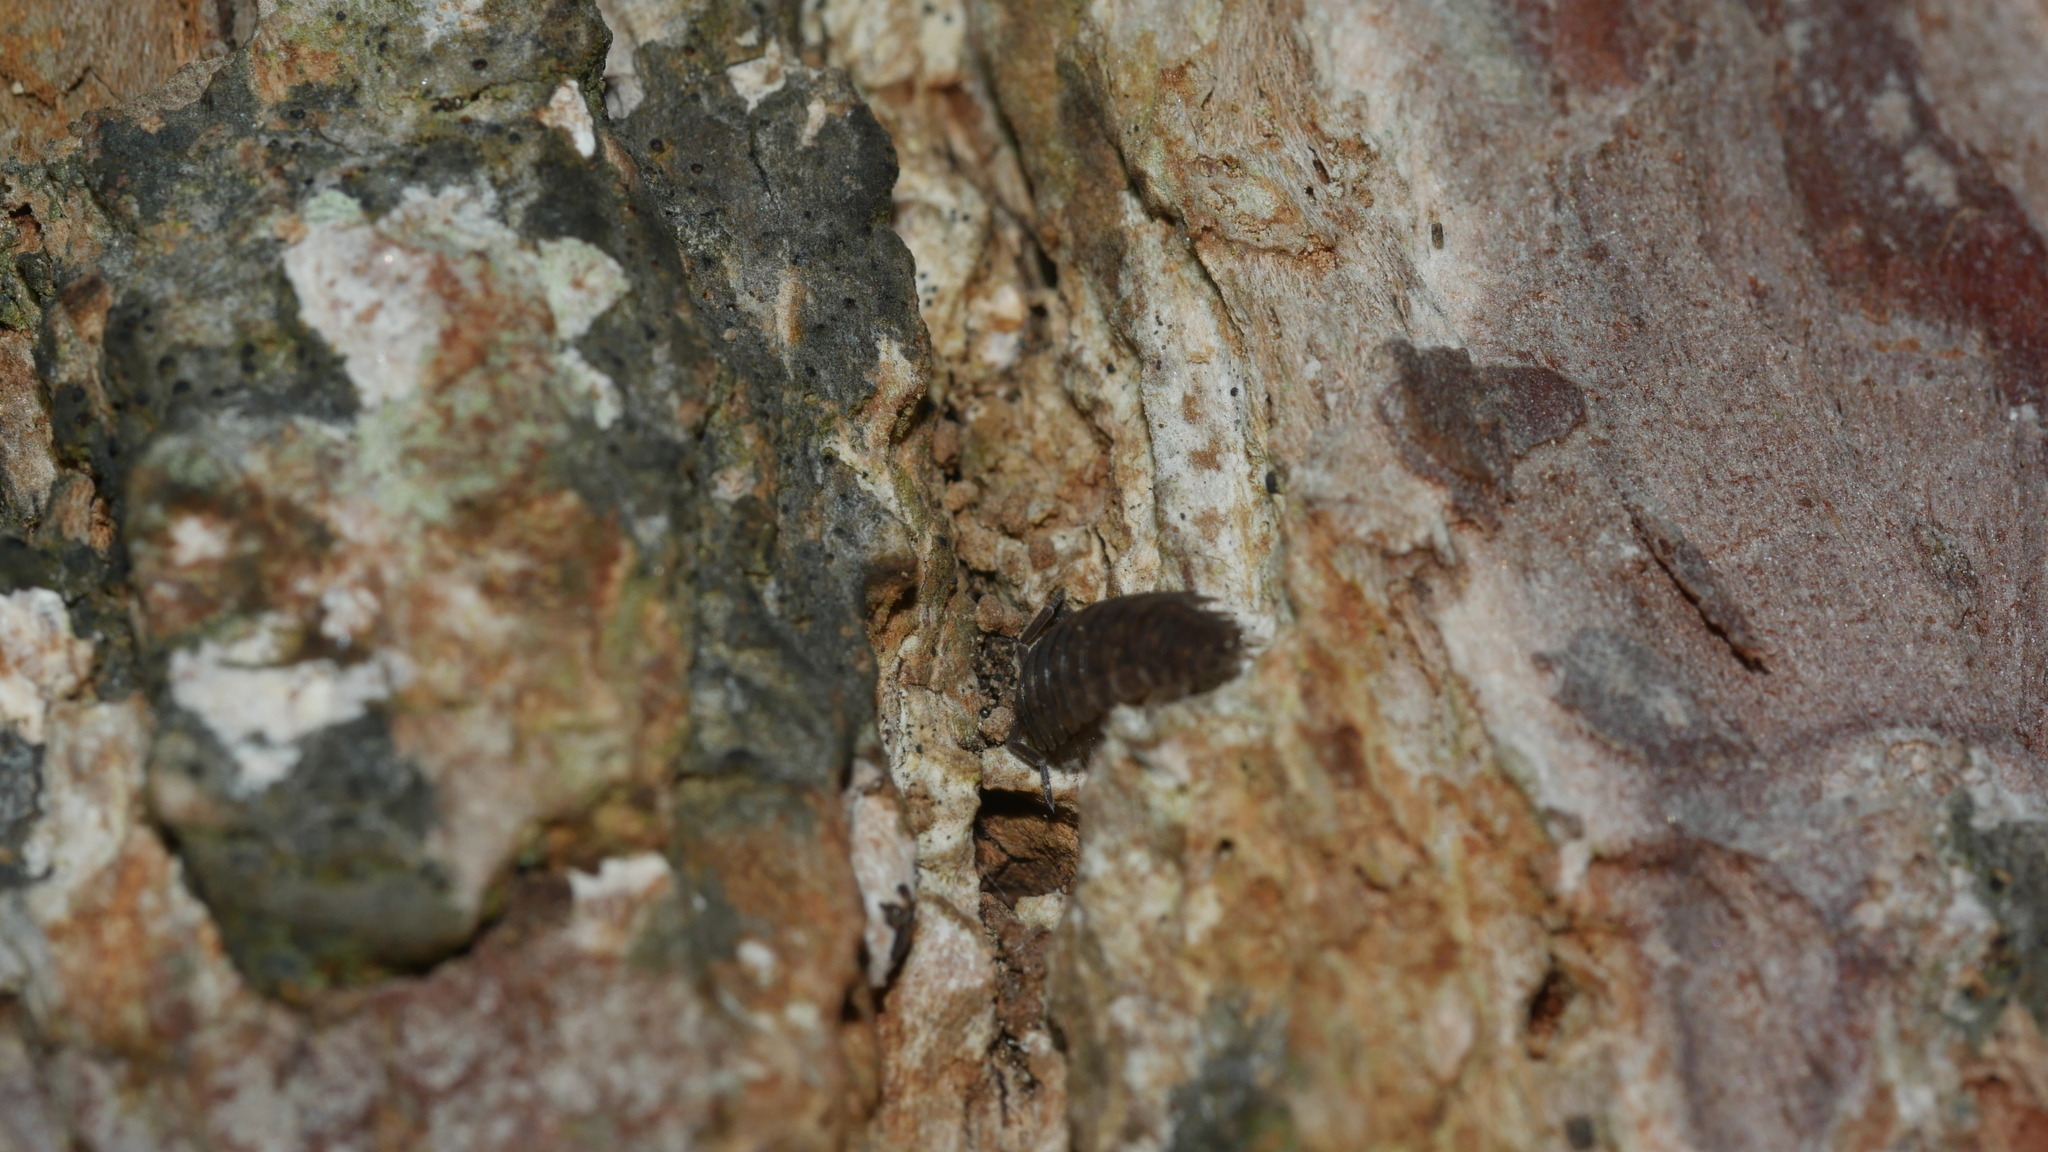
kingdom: Animalia
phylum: Arthropoda
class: Malacostraca
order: Isopoda
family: Porcellionidae
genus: Porcellio
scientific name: Porcellio scaber
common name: Common rough woodlouse
